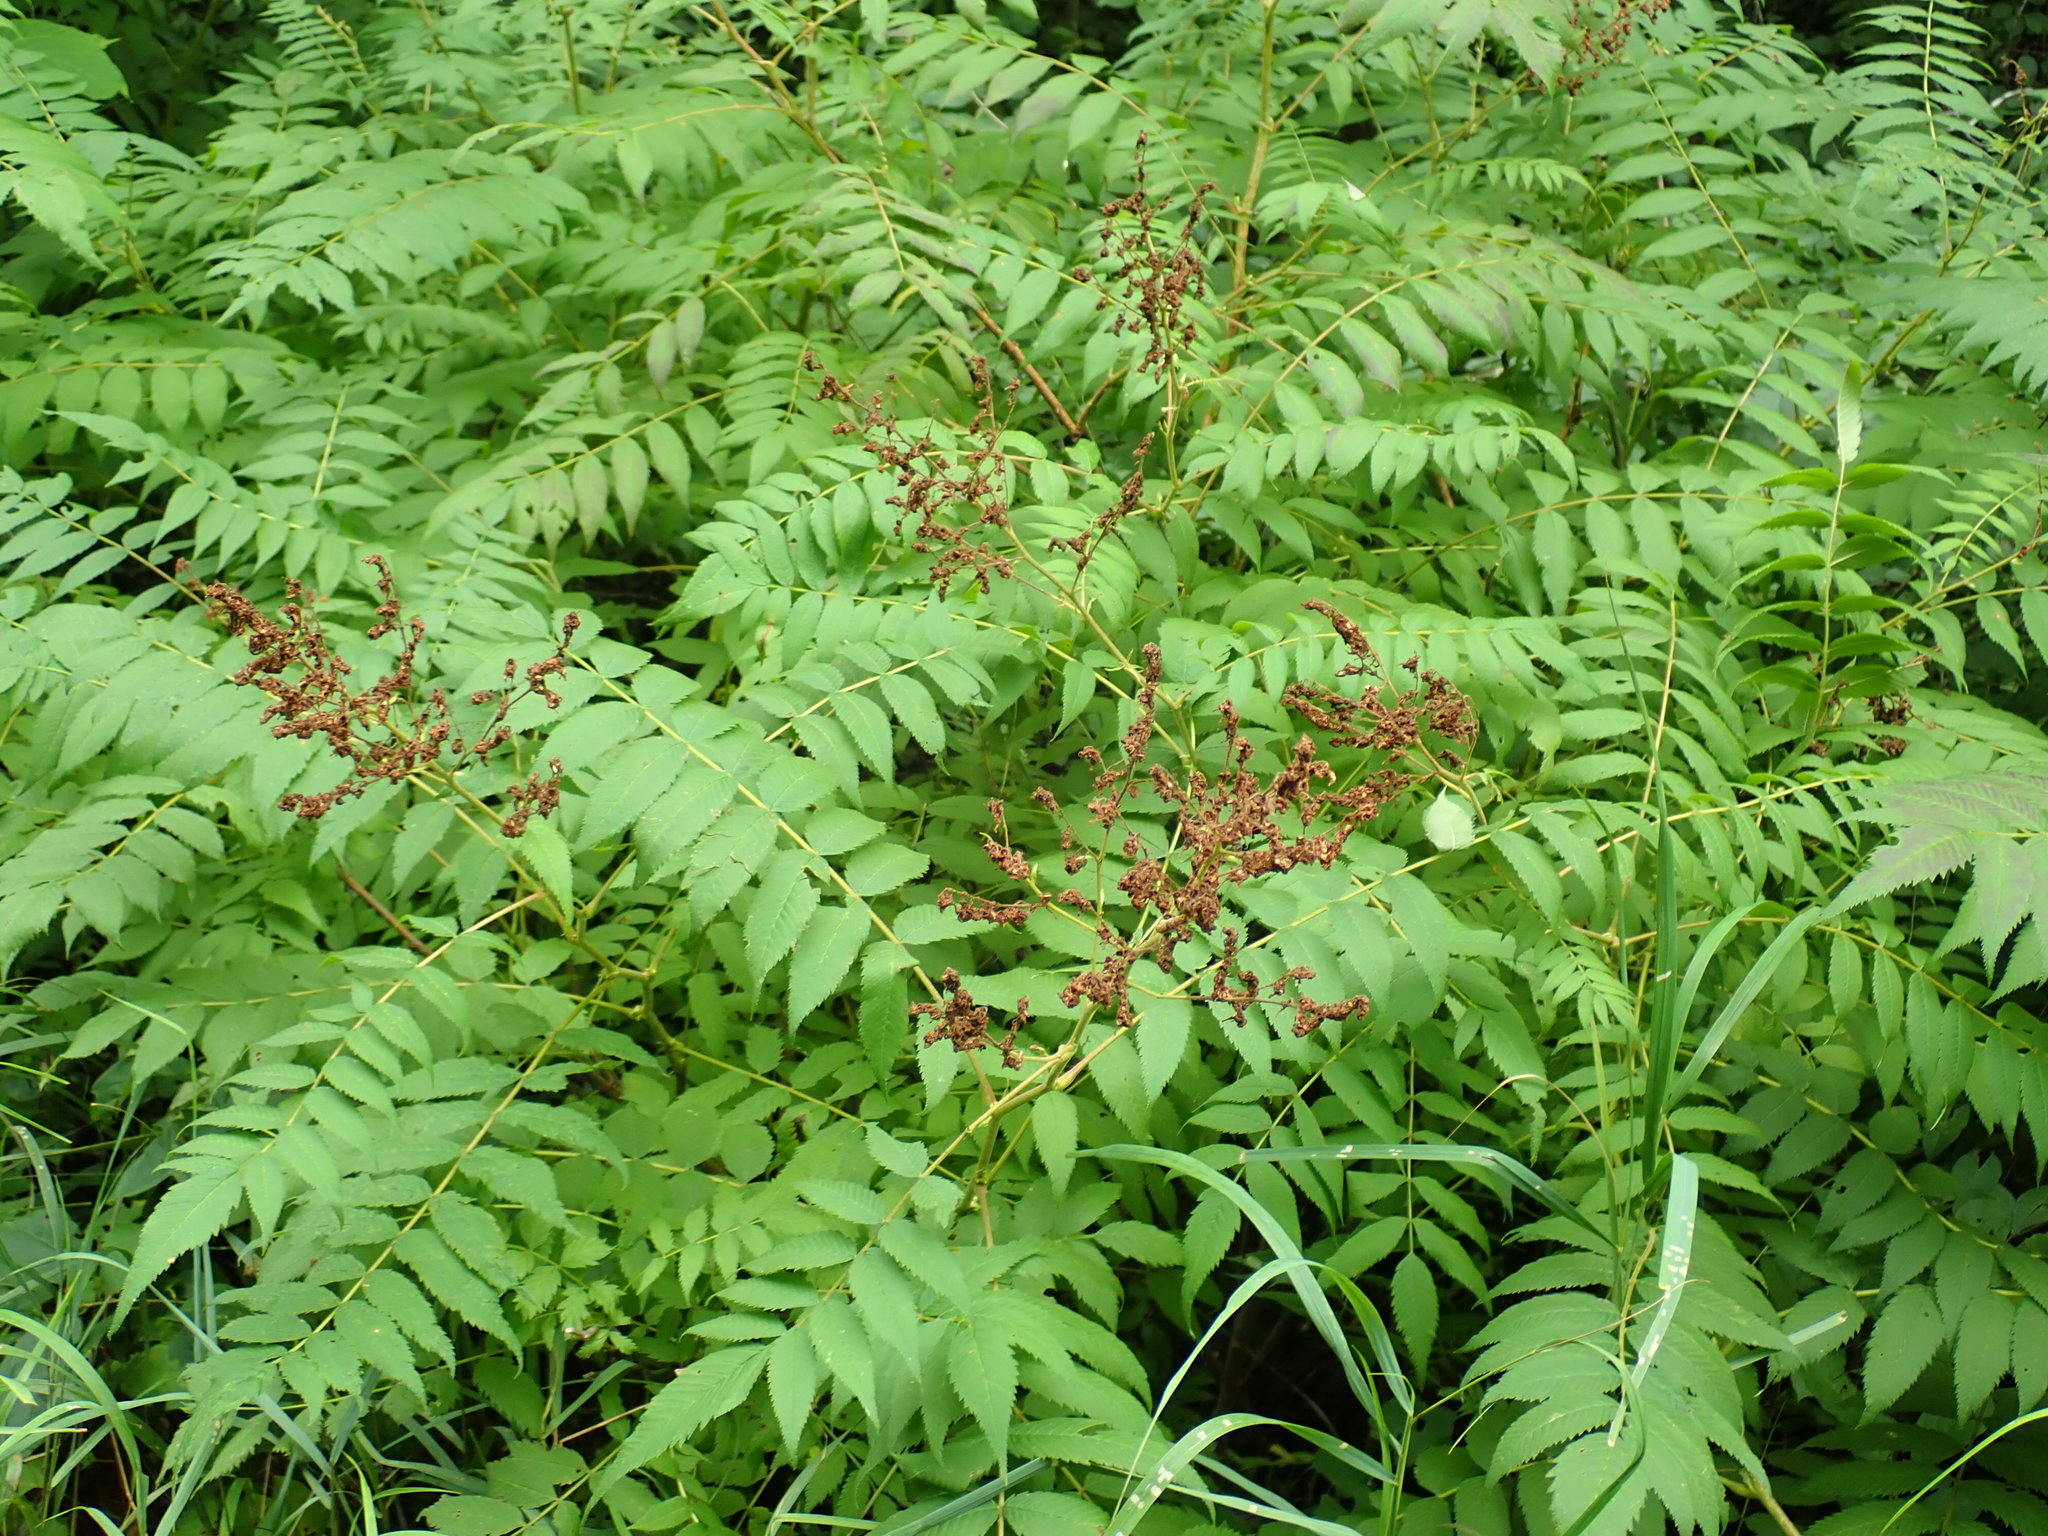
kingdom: Plantae
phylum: Tracheophyta
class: Magnoliopsida
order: Rosales
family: Rosaceae
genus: Sorbaria
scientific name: Sorbaria sorbifolia
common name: False spiraea
